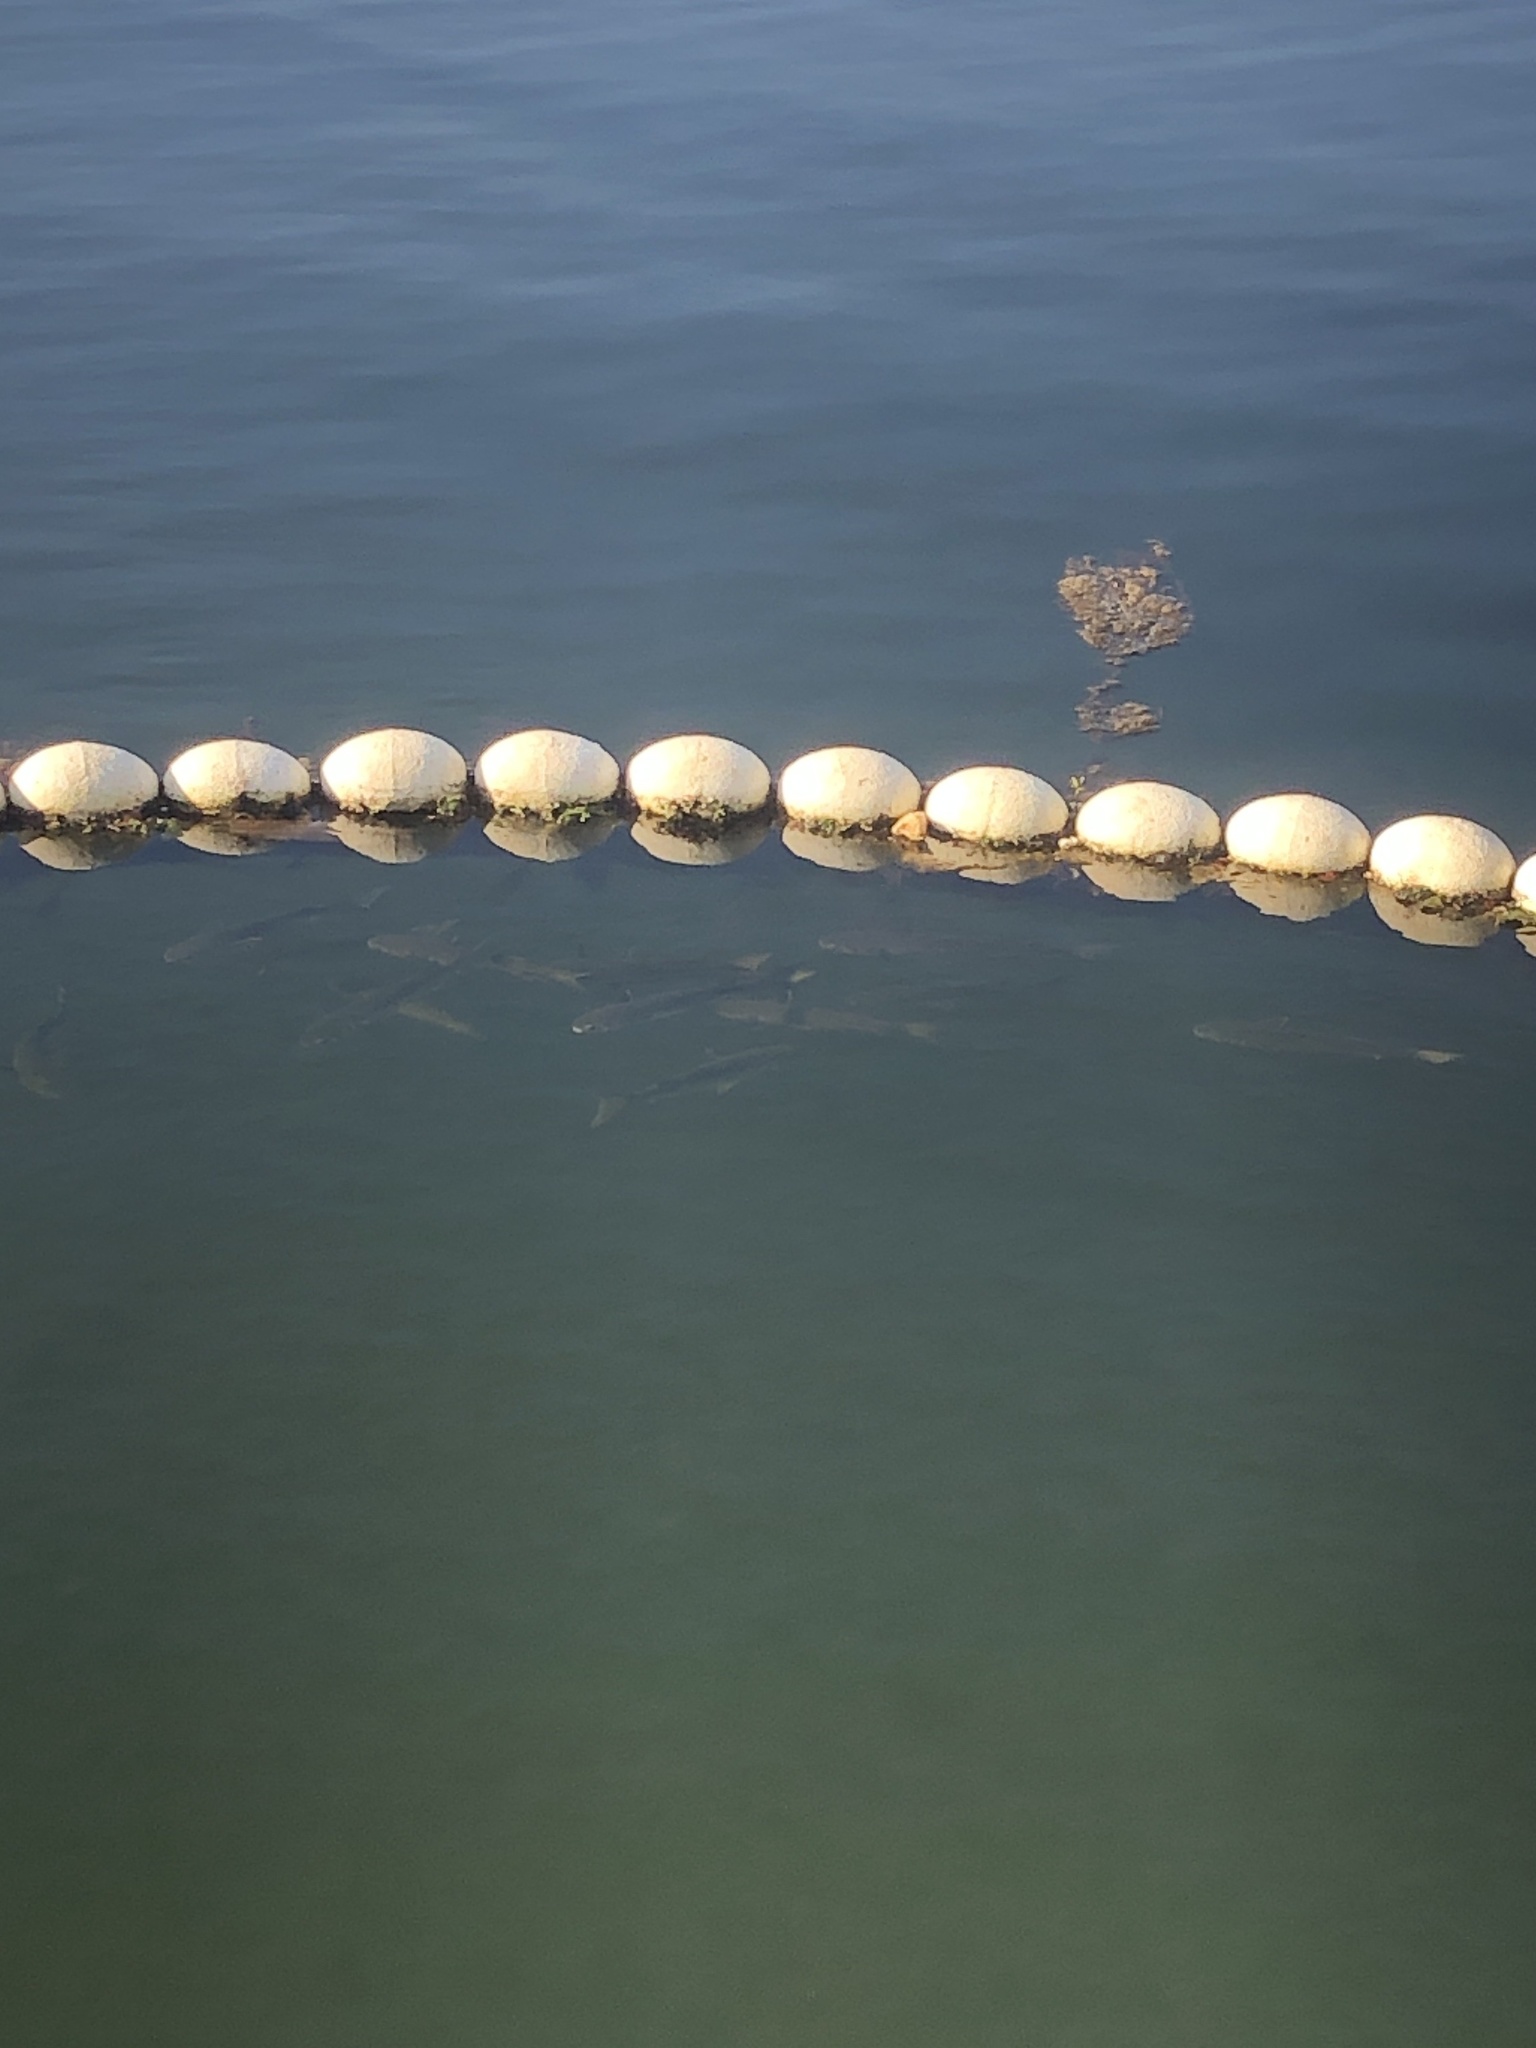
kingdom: Animalia
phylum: Chordata
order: Mugiliformes
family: Mugilidae
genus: Mugil
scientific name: Mugil cephalus
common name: Grey mullet
